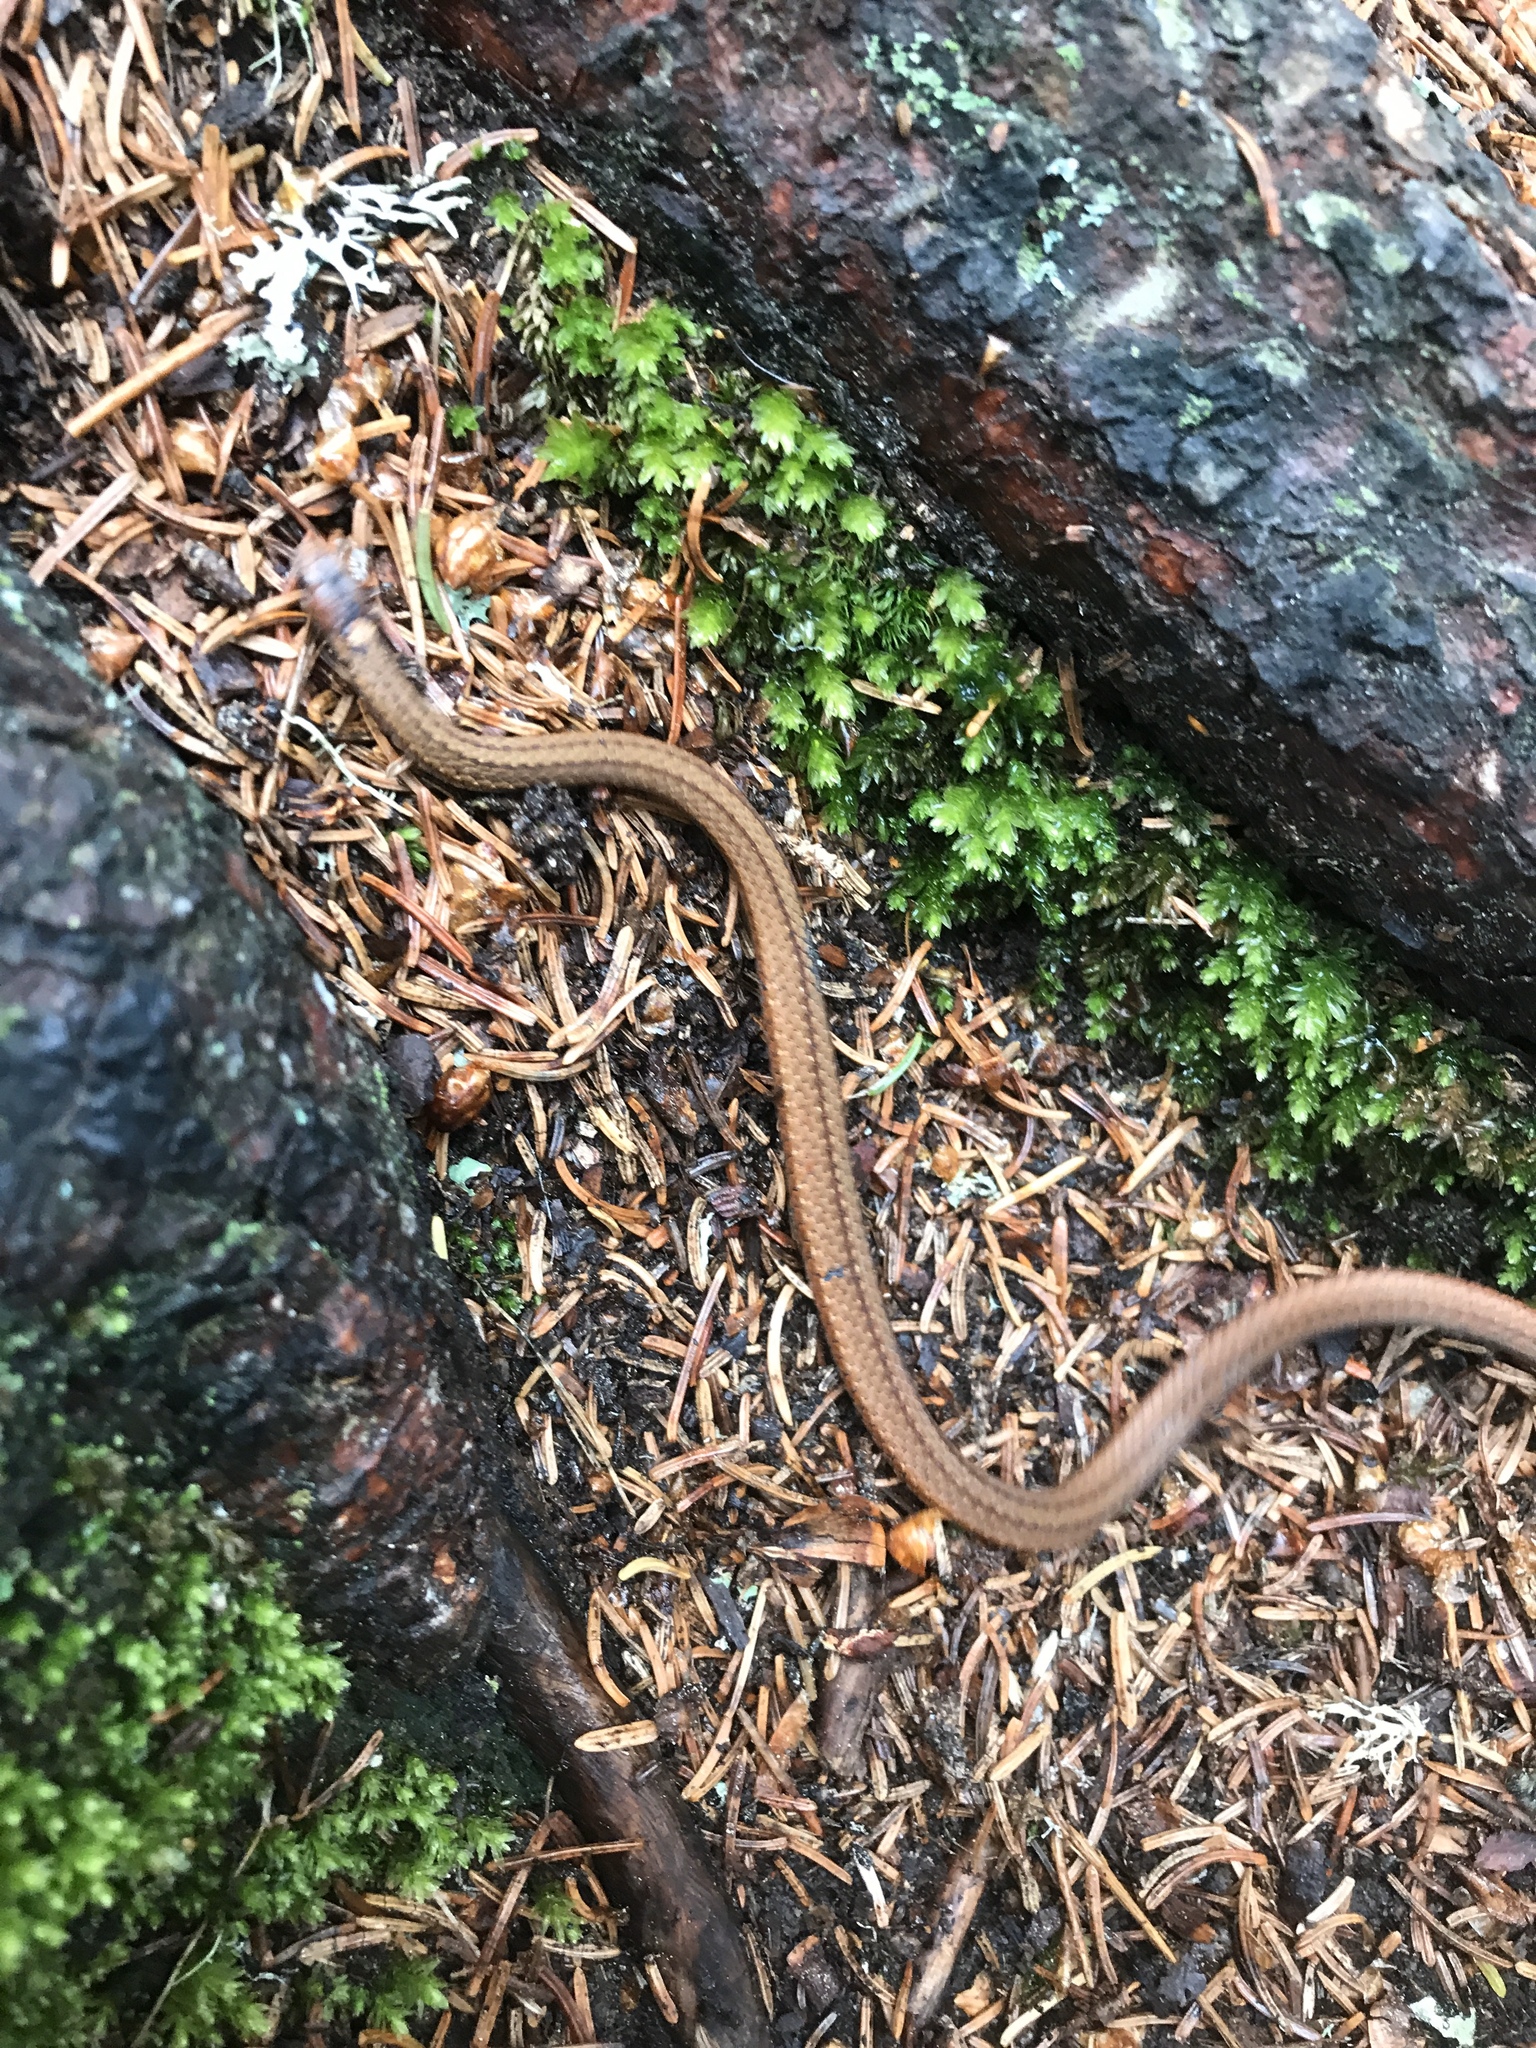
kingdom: Animalia
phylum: Chordata
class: Squamata
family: Colubridae
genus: Storeria
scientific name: Storeria occipitomaculata
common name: Redbelly snake
